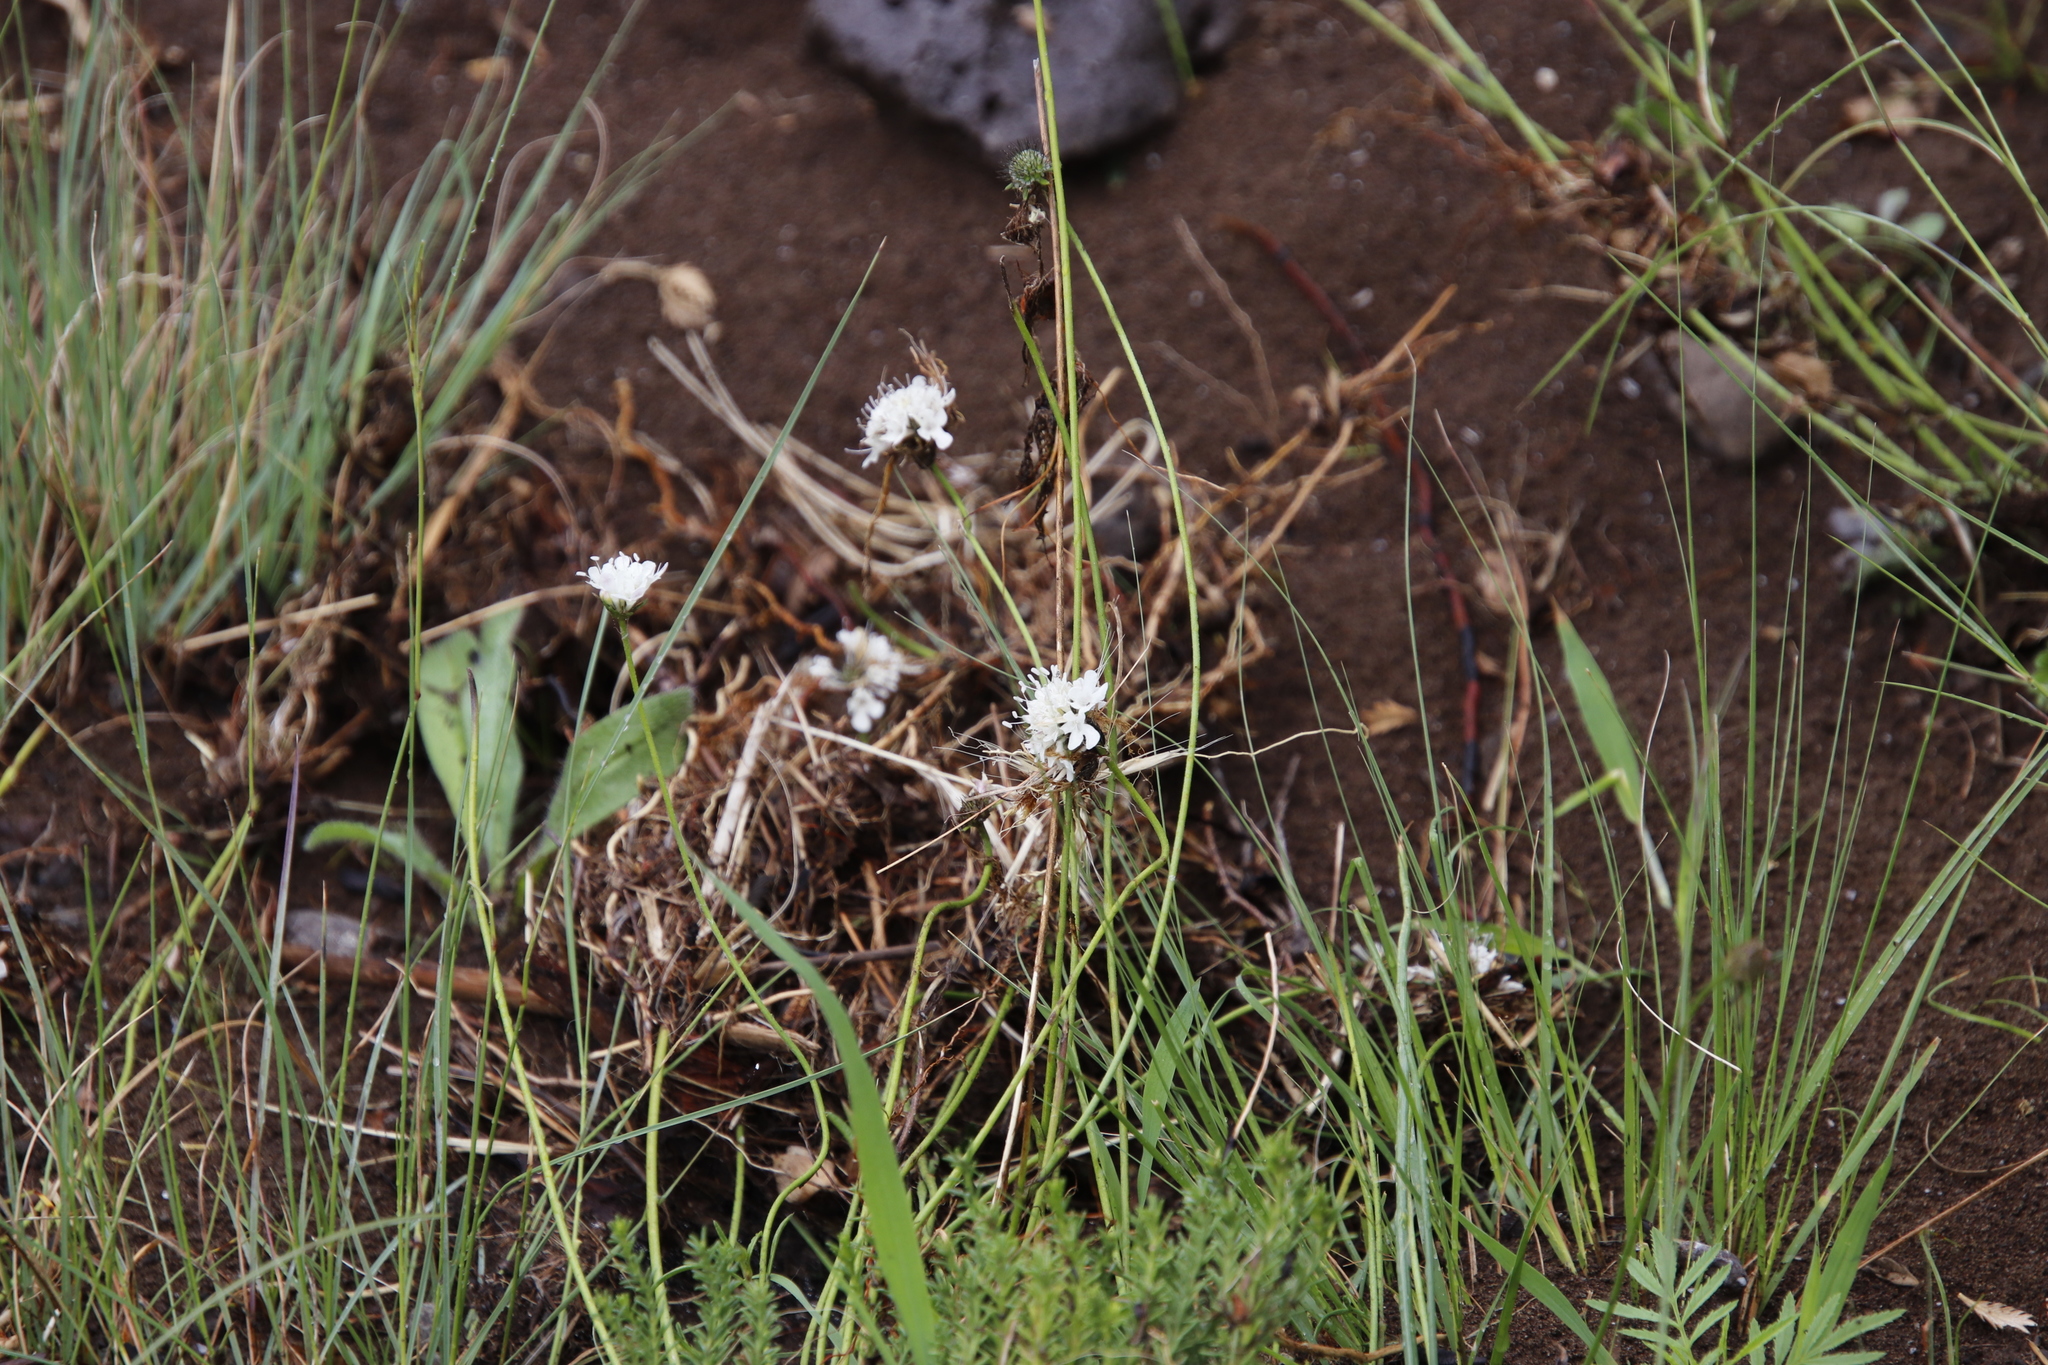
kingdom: Plantae
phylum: Tracheophyta
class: Magnoliopsida
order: Dipsacales
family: Caprifoliaceae
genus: Scabiosa
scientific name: Scabiosa columbaria
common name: Small scabious
